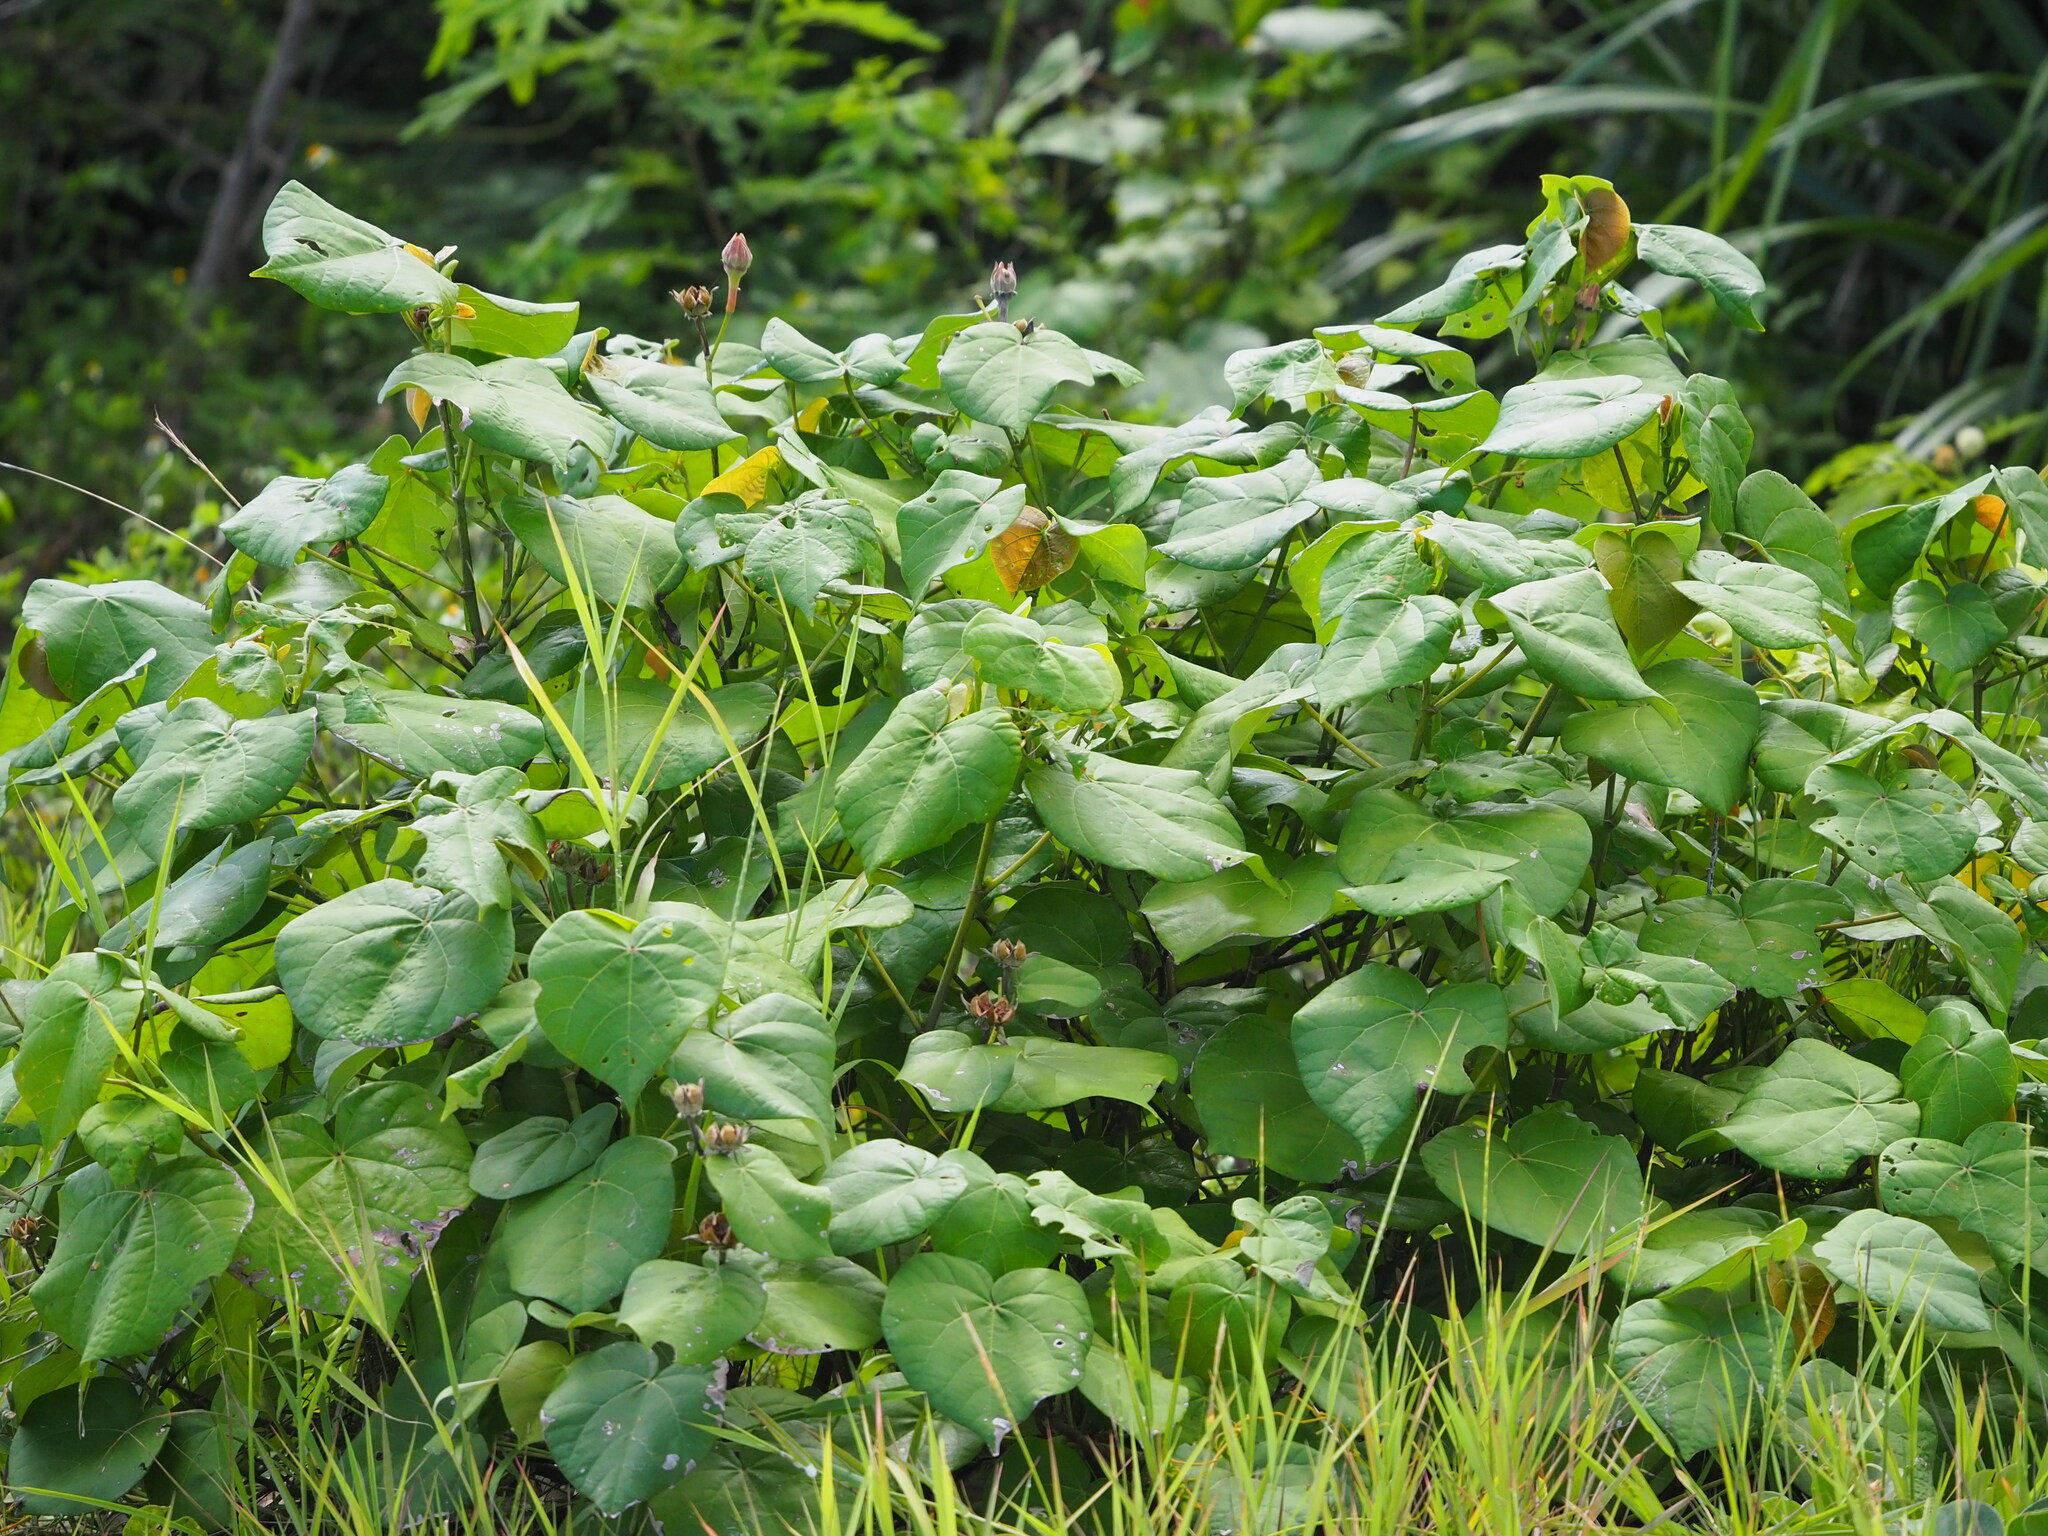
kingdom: Plantae
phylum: Tracheophyta
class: Magnoliopsida
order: Malvales
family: Malvaceae
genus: Talipariti
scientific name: Talipariti tiliaceum
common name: Sea hibiscus
